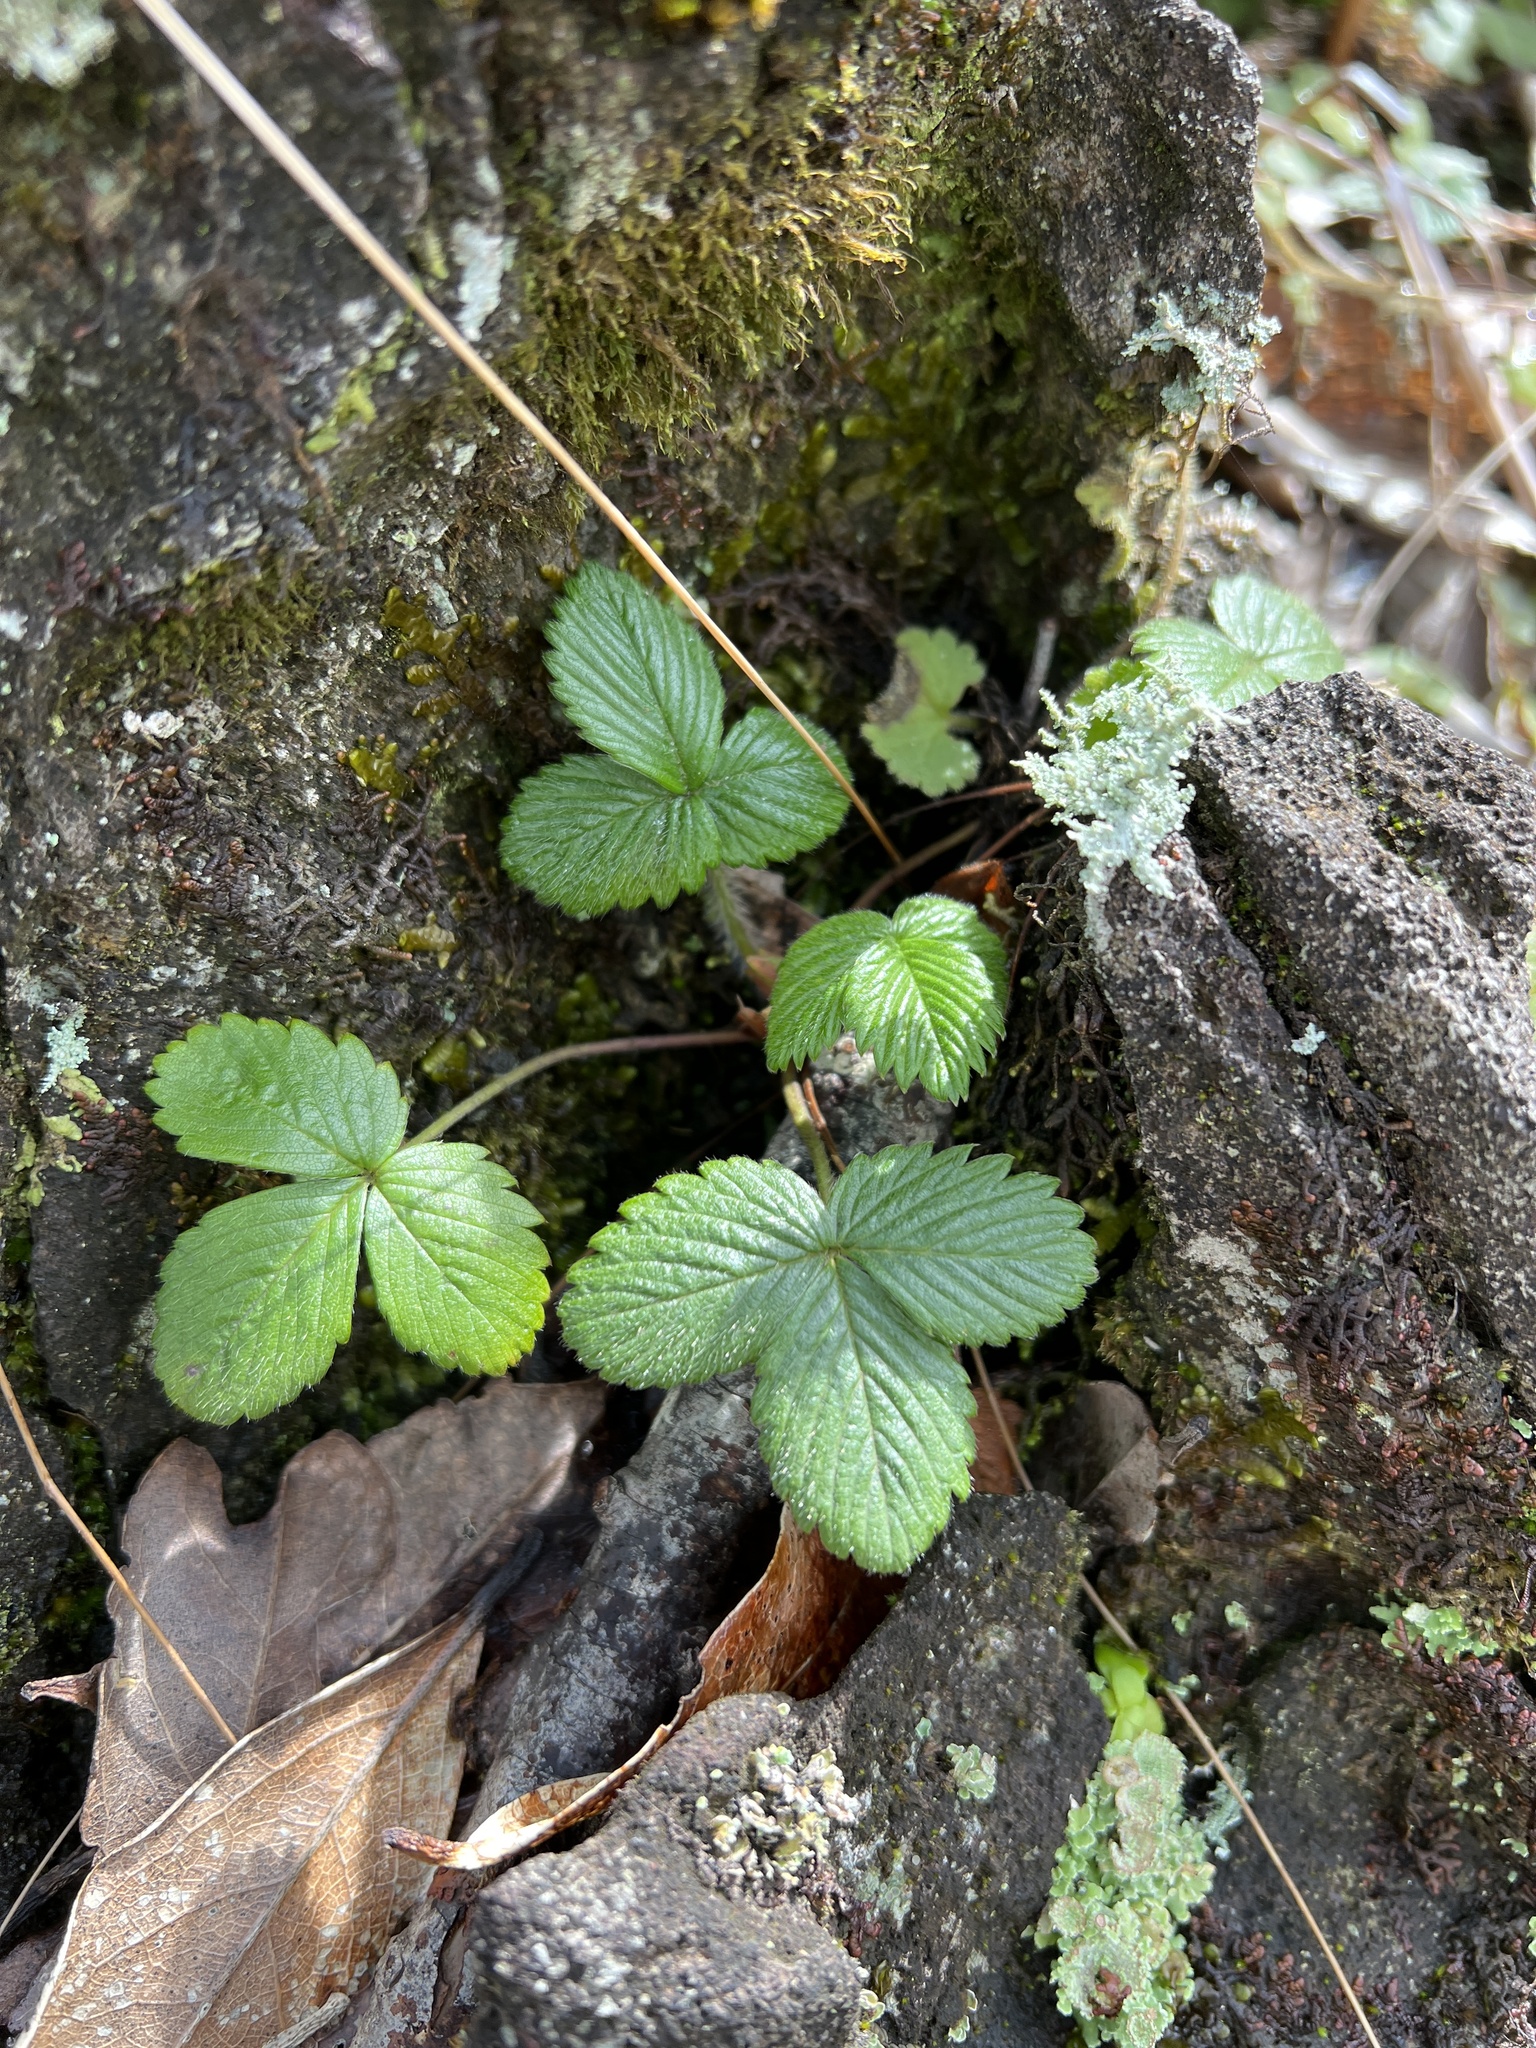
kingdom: Plantae
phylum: Tracheophyta
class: Magnoliopsida
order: Rosales
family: Rosaceae
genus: Fragaria
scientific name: Fragaria vesca
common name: Wild strawberry
